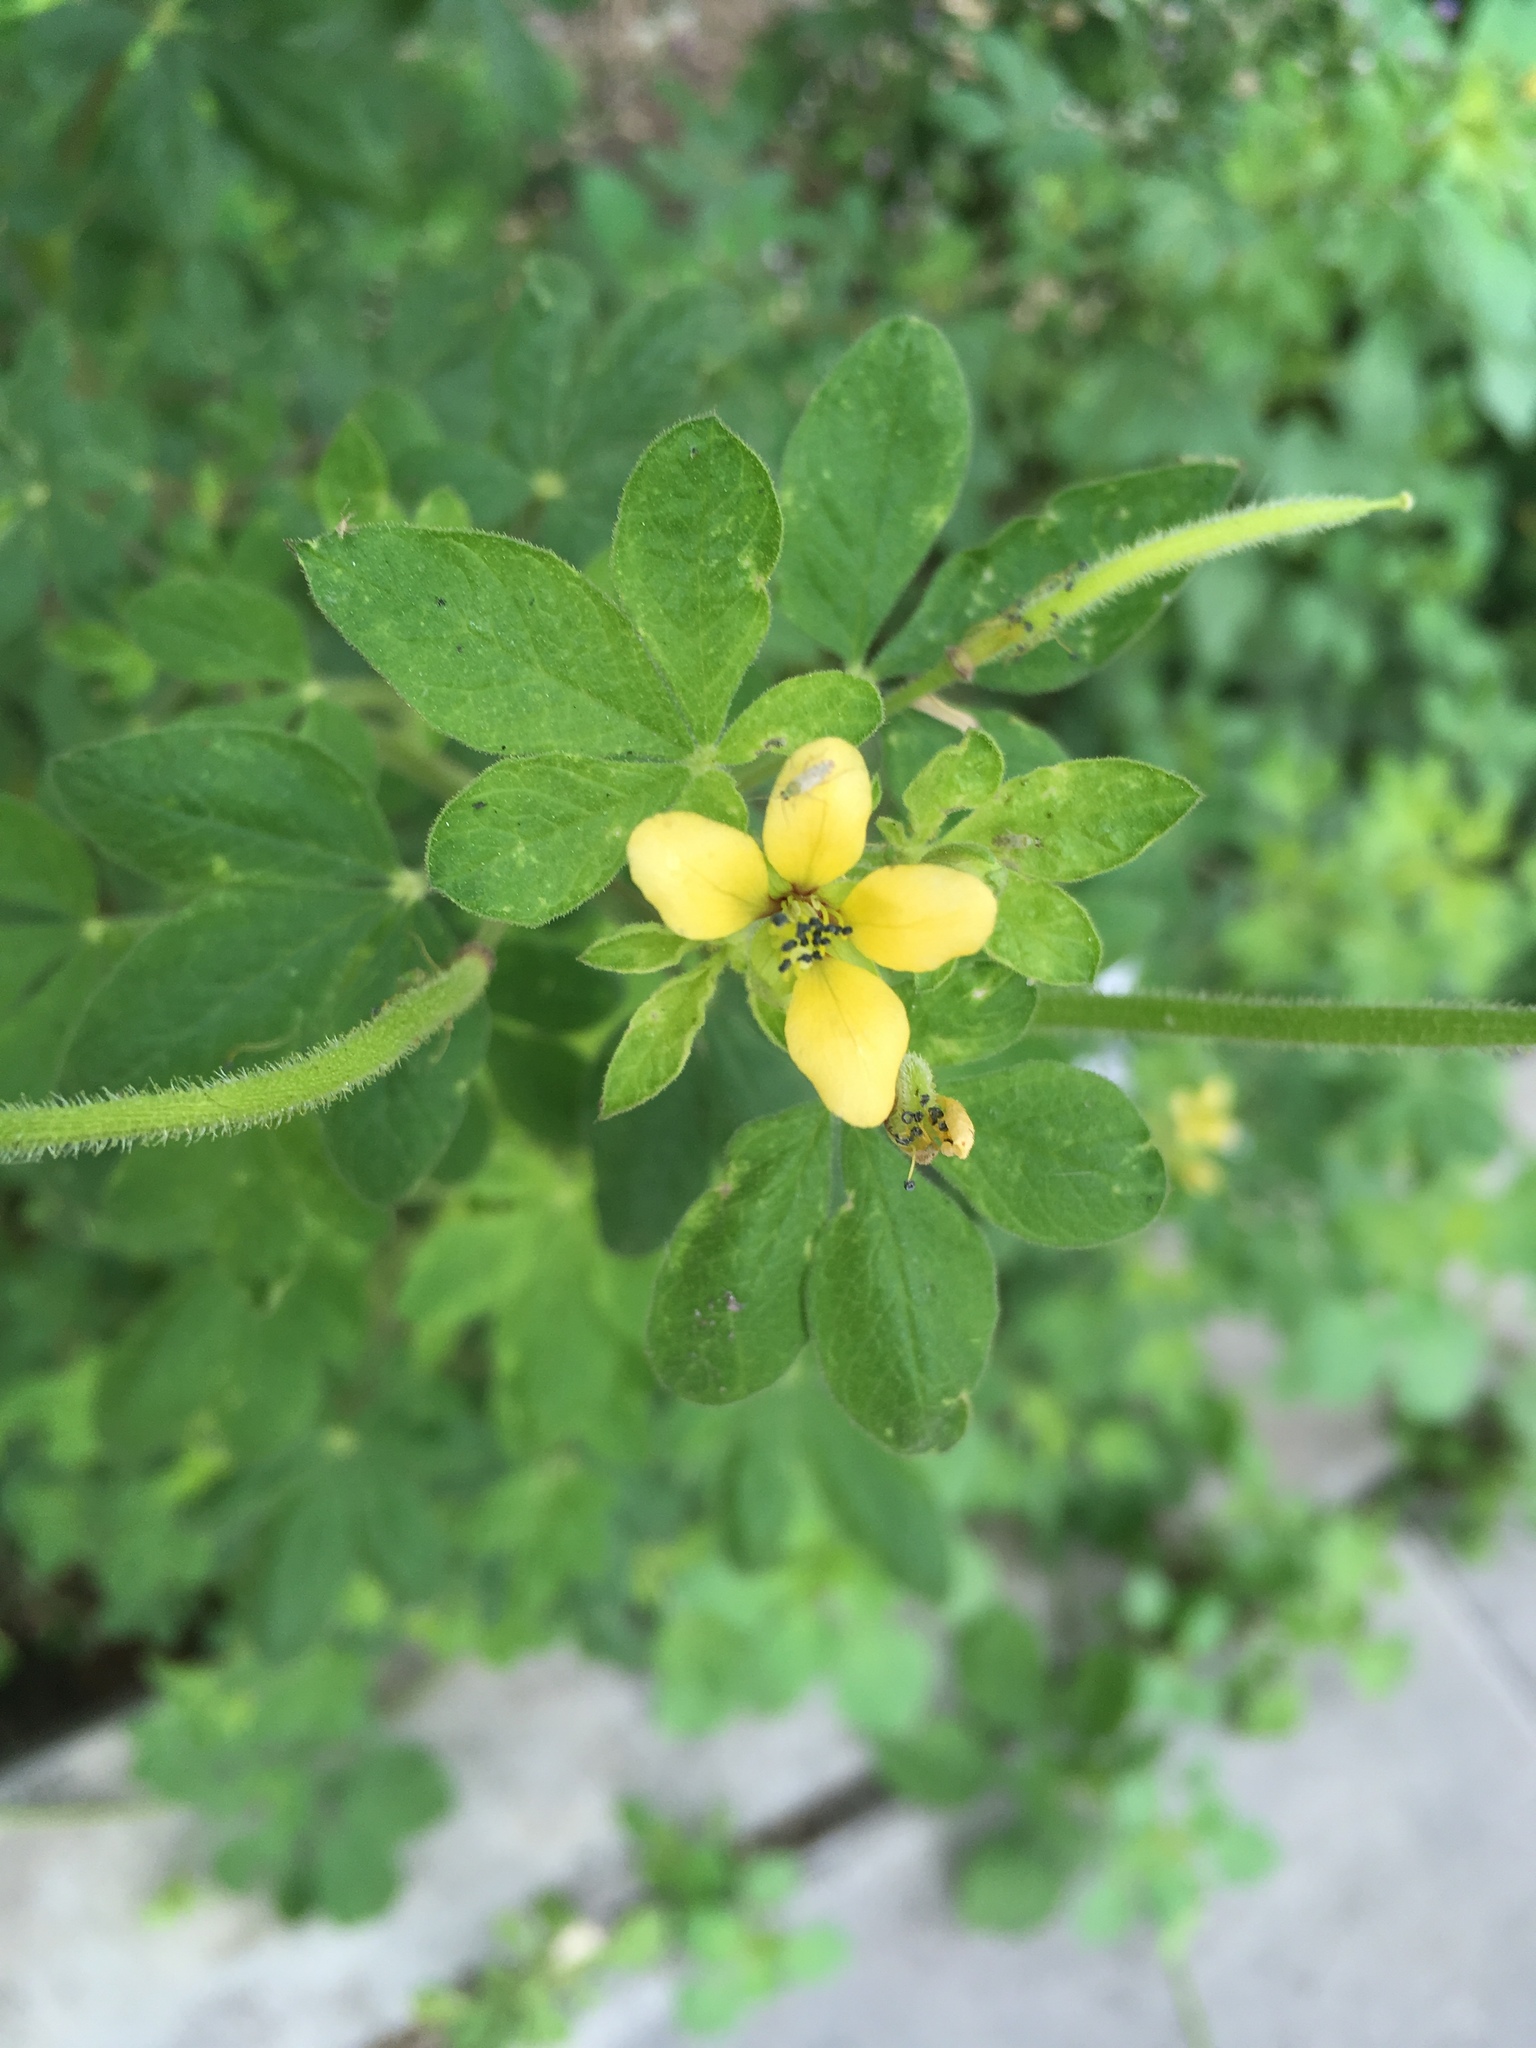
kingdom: Plantae
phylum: Tracheophyta
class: Magnoliopsida
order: Brassicales
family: Cleomaceae
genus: Arivela
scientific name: Arivela viscosa
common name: Asian spiderflower
